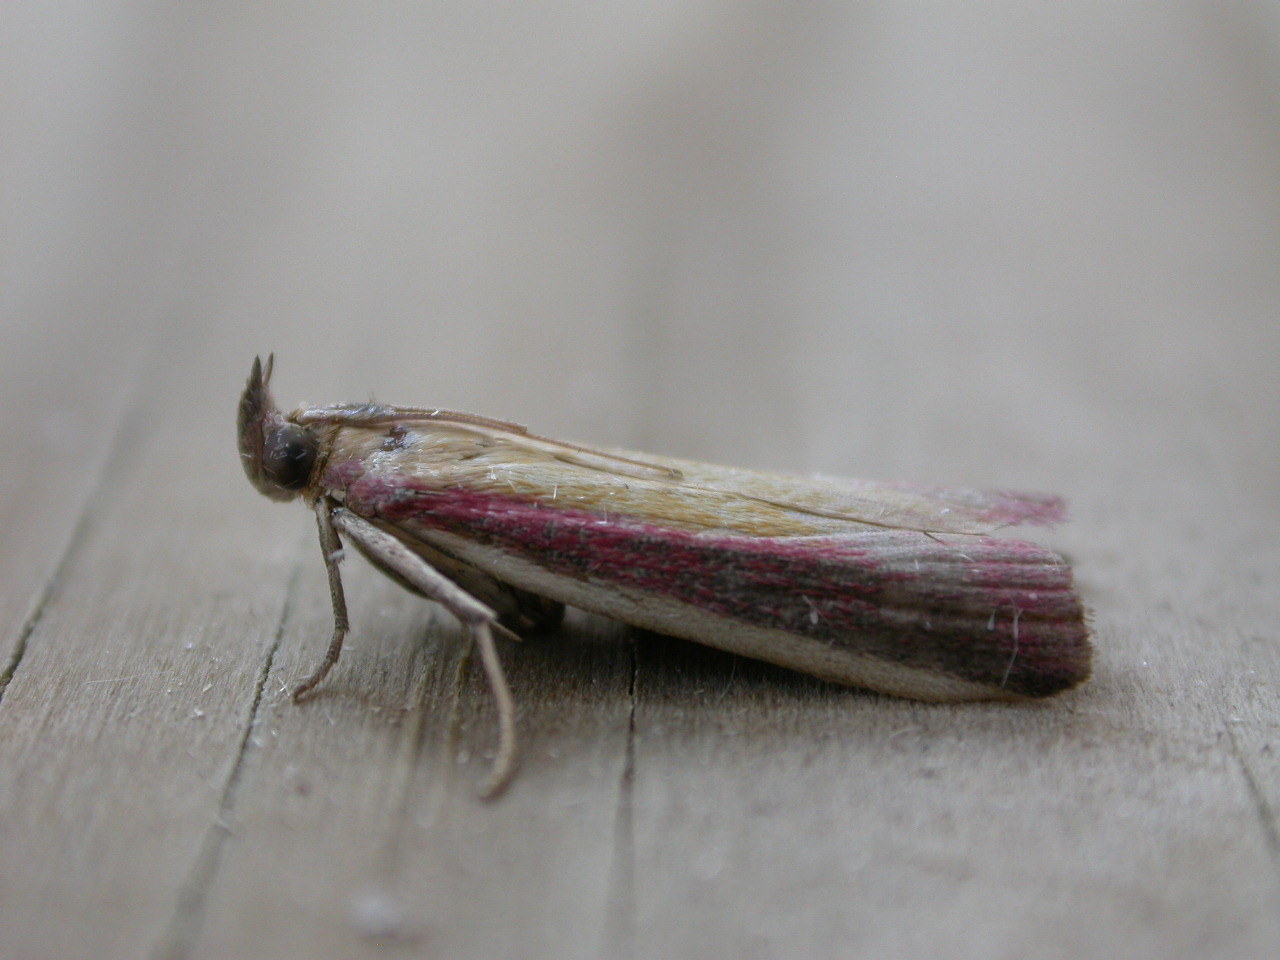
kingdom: Animalia
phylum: Arthropoda
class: Insecta
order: Lepidoptera
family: Pyralidae
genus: Oncocera
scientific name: Oncocera semirubella
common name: Rosy-striped knot-horn
